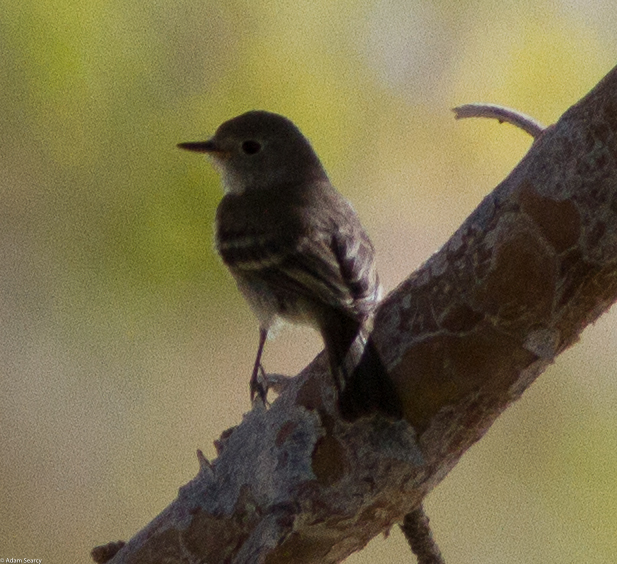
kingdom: Animalia
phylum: Chordata
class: Aves
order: Passeriformes
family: Tyrannidae
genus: Empidonax
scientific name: Empidonax wrightii
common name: Gray flycatcher
